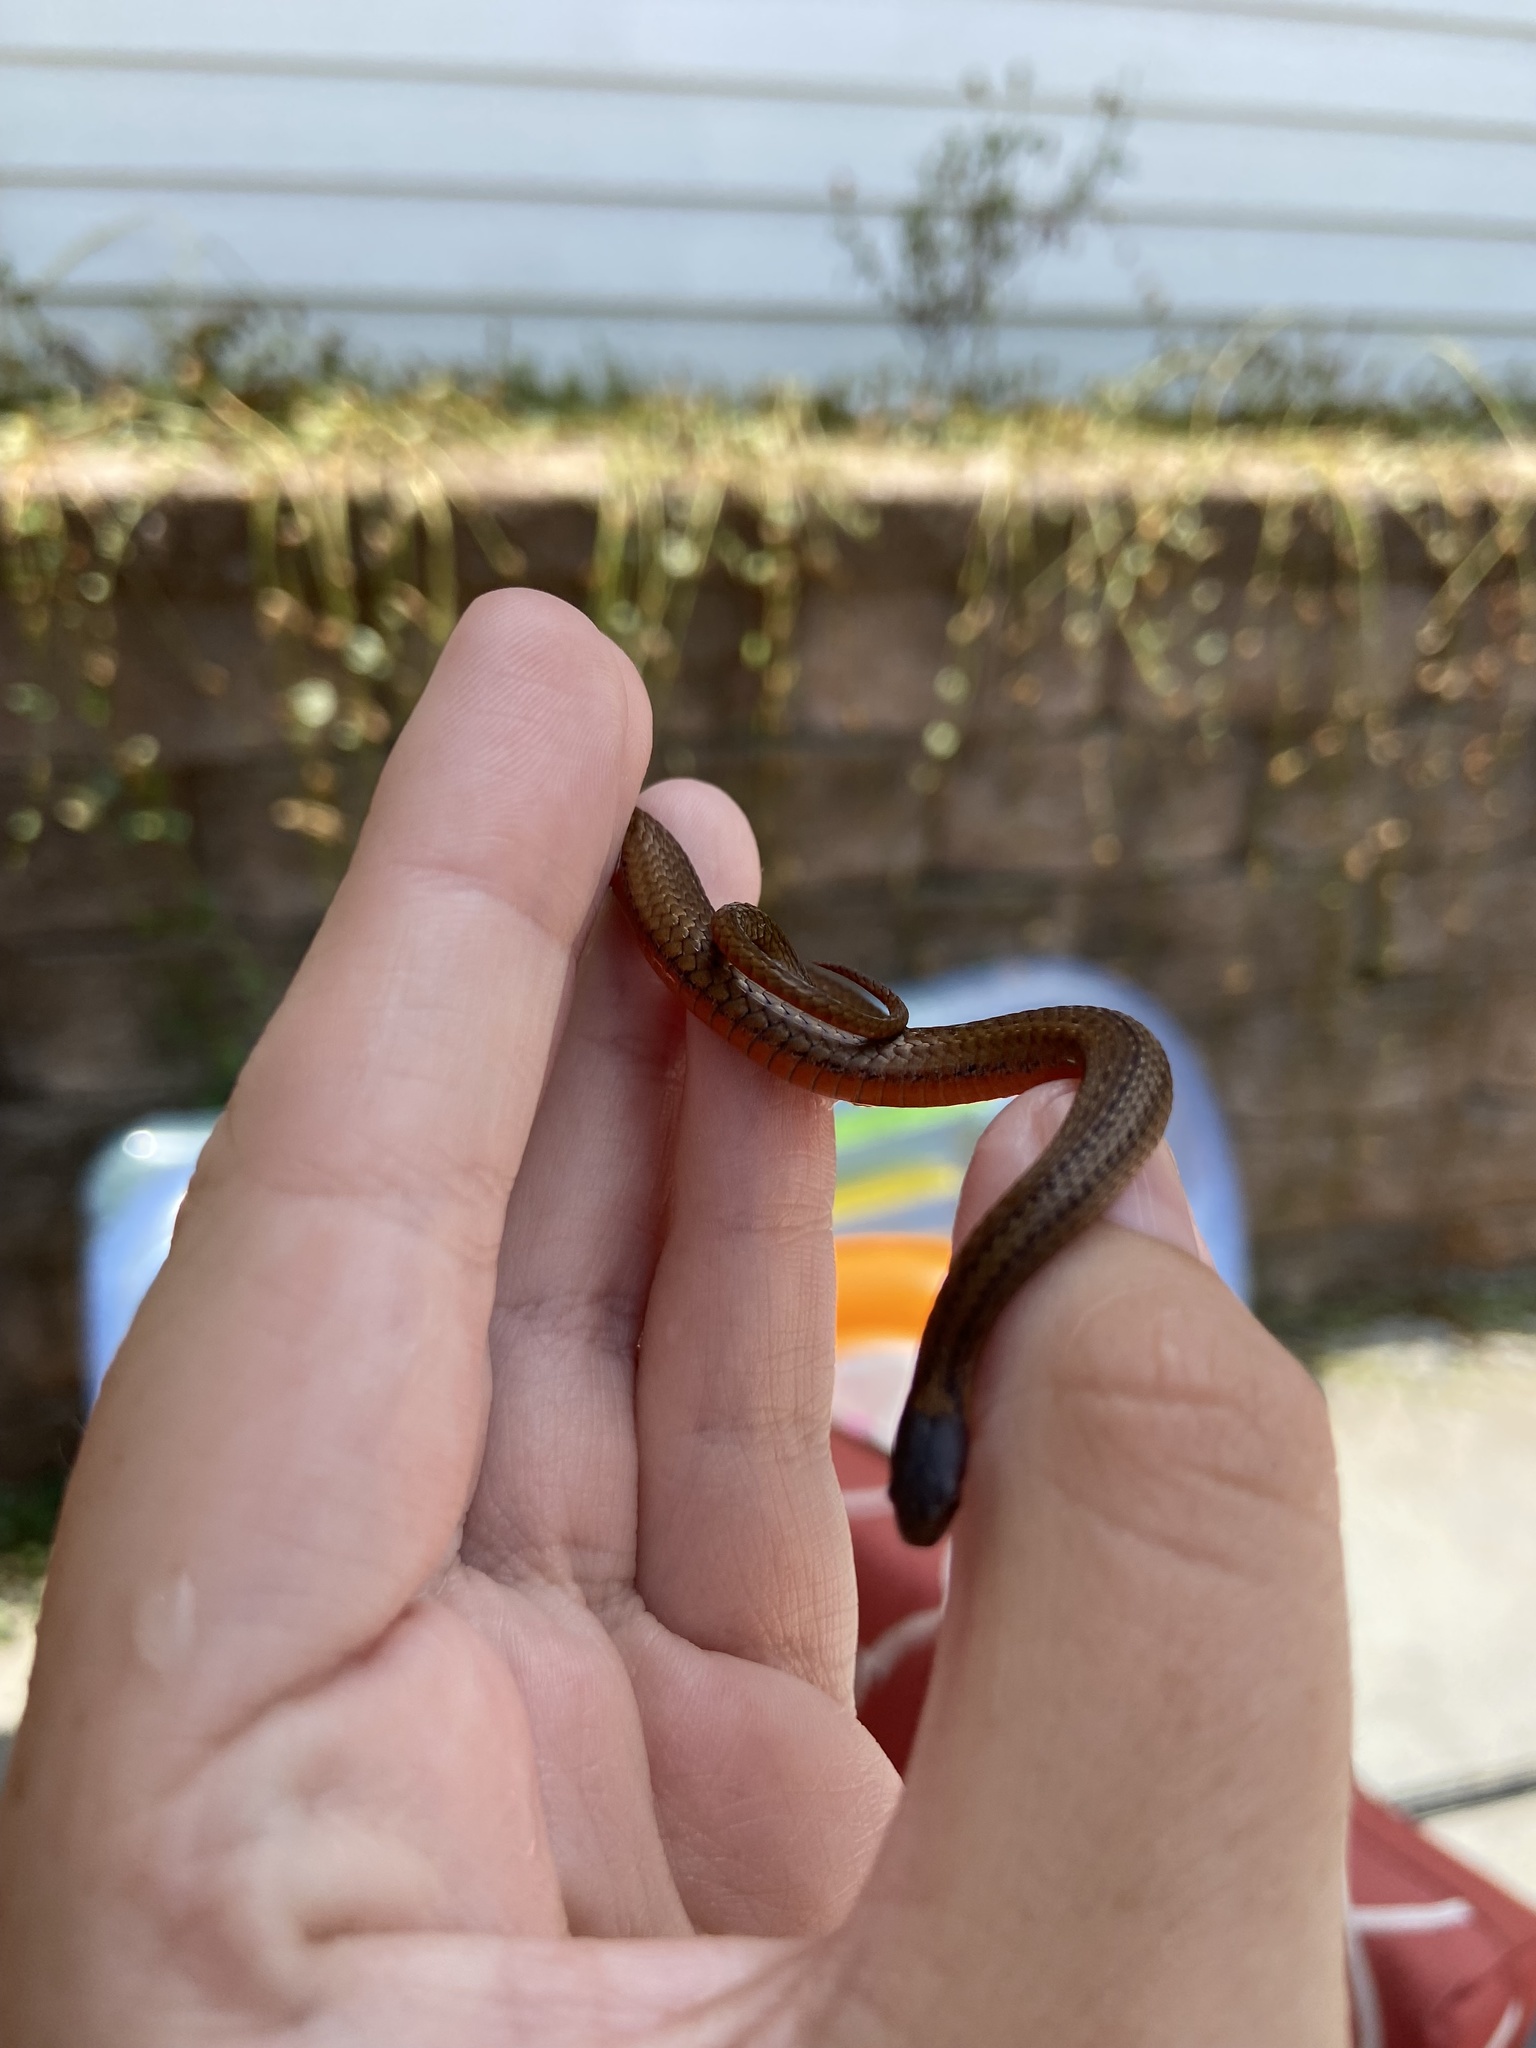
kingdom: Animalia
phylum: Chordata
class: Squamata
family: Colubridae
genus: Storeria
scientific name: Storeria occipitomaculata
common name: Redbelly snake
